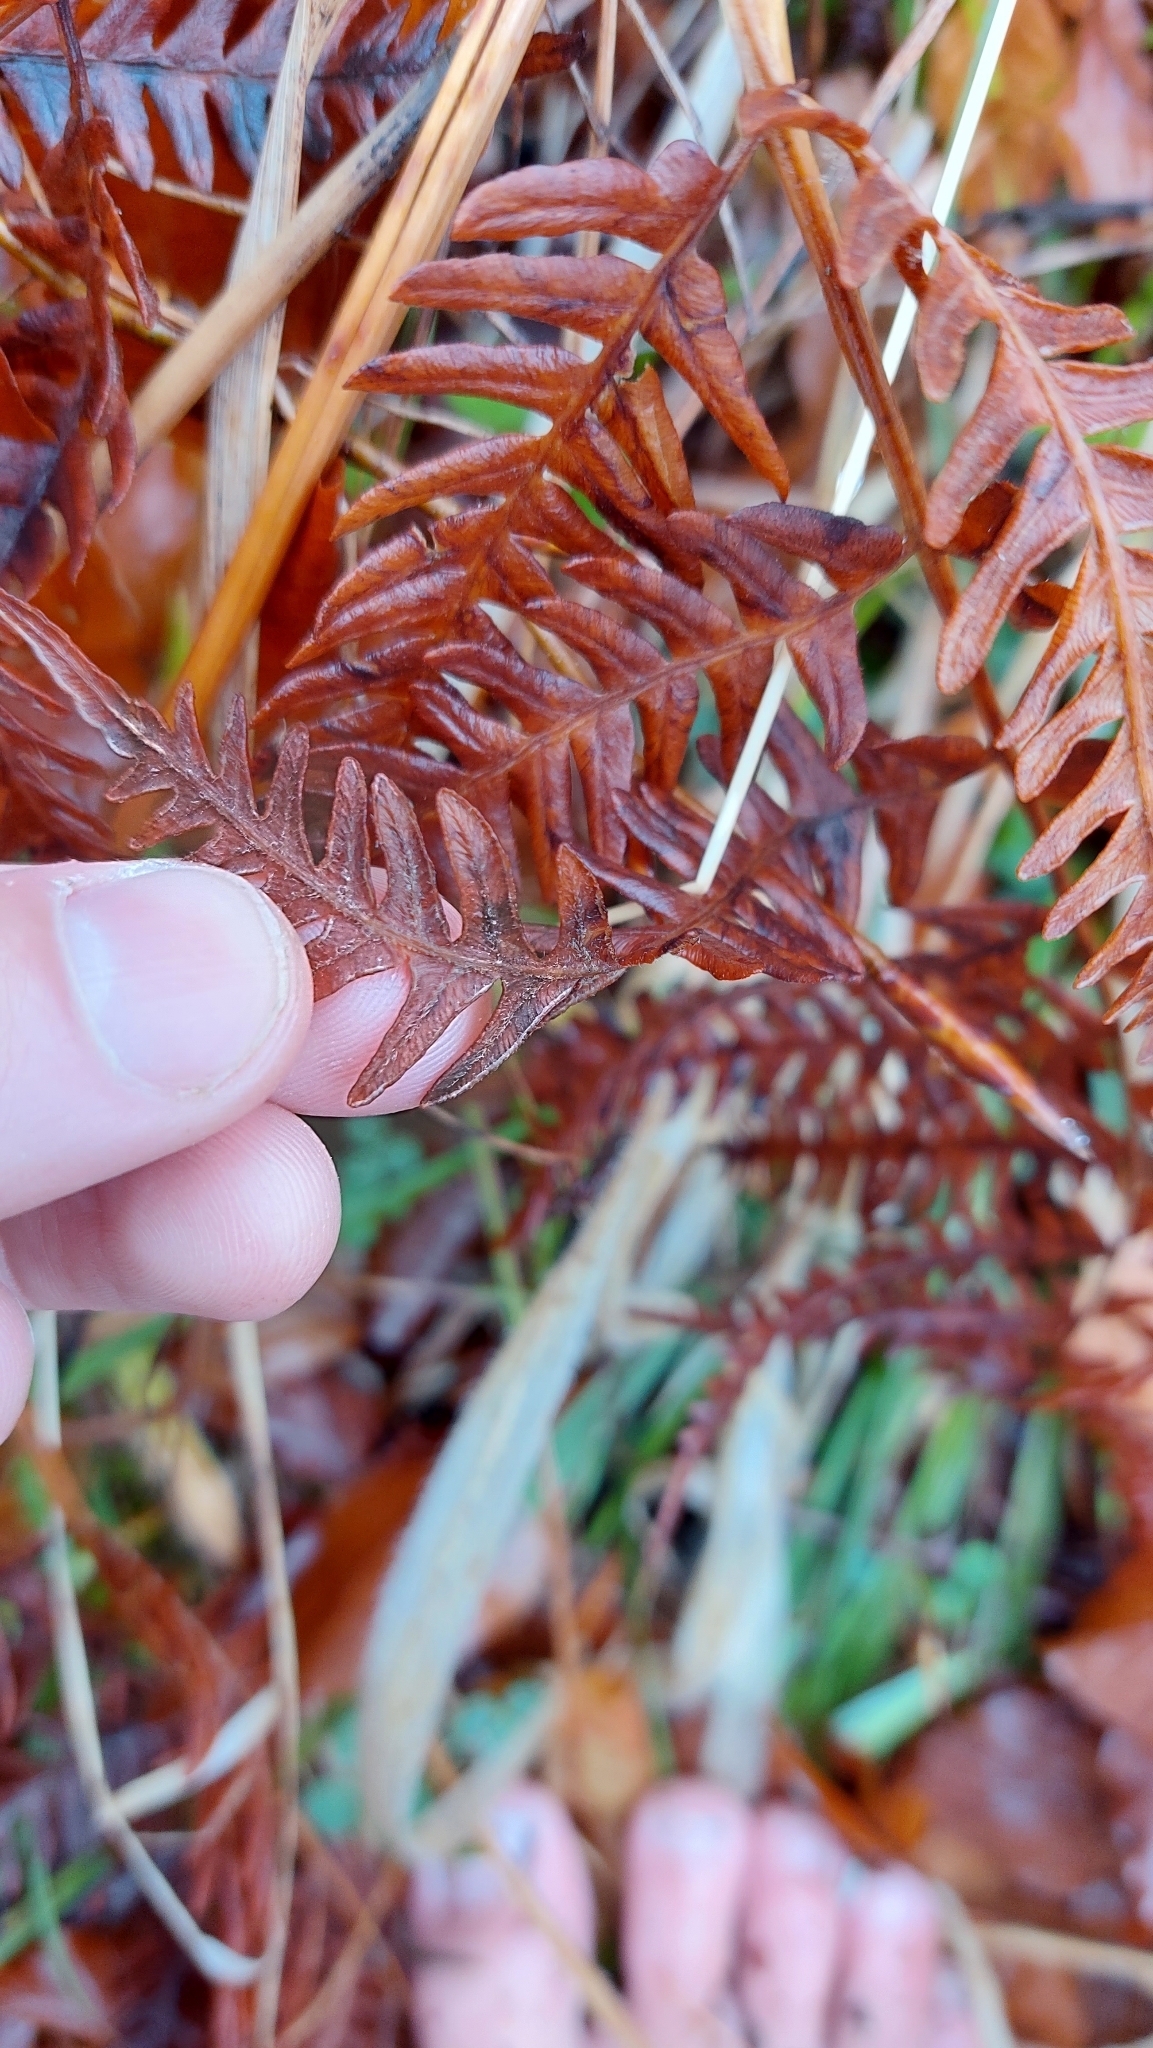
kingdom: Plantae
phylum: Tracheophyta
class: Polypodiopsida
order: Polypodiales
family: Dennstaedtiaceae
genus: Pteridium
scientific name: Pteridium aquilinum
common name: Bracken
